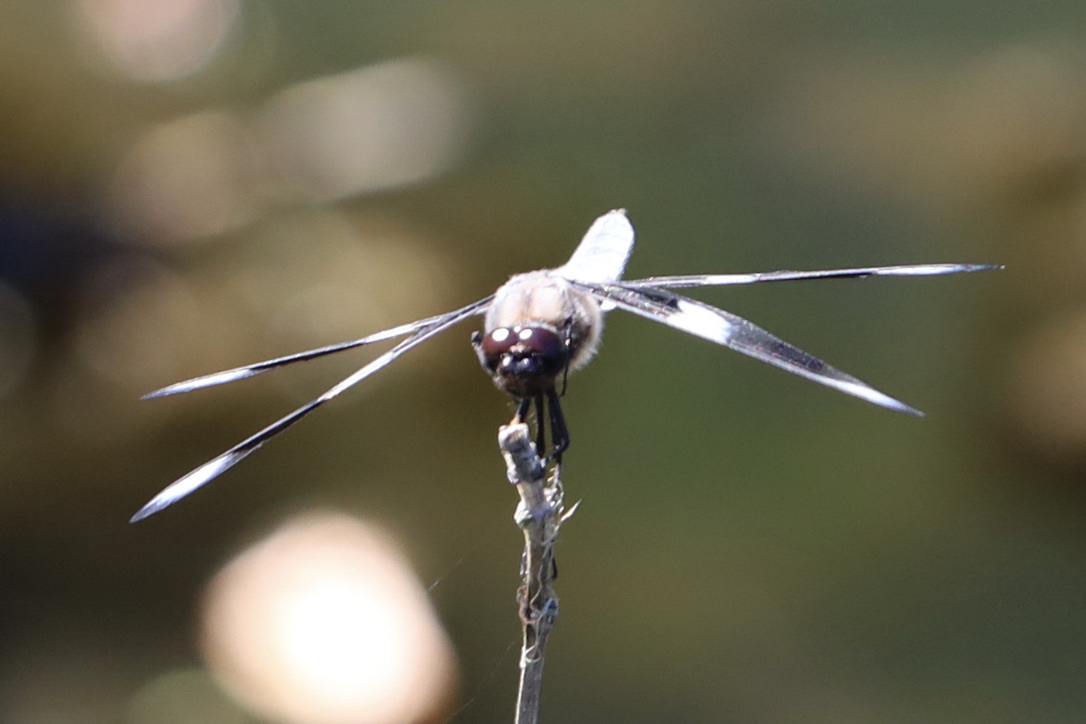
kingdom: Animalia
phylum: Arthropoda
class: Insecta
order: Odonata
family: Libellulidae
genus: Libellula
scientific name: Libellula forensis
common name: Eight-spotted skimmer
